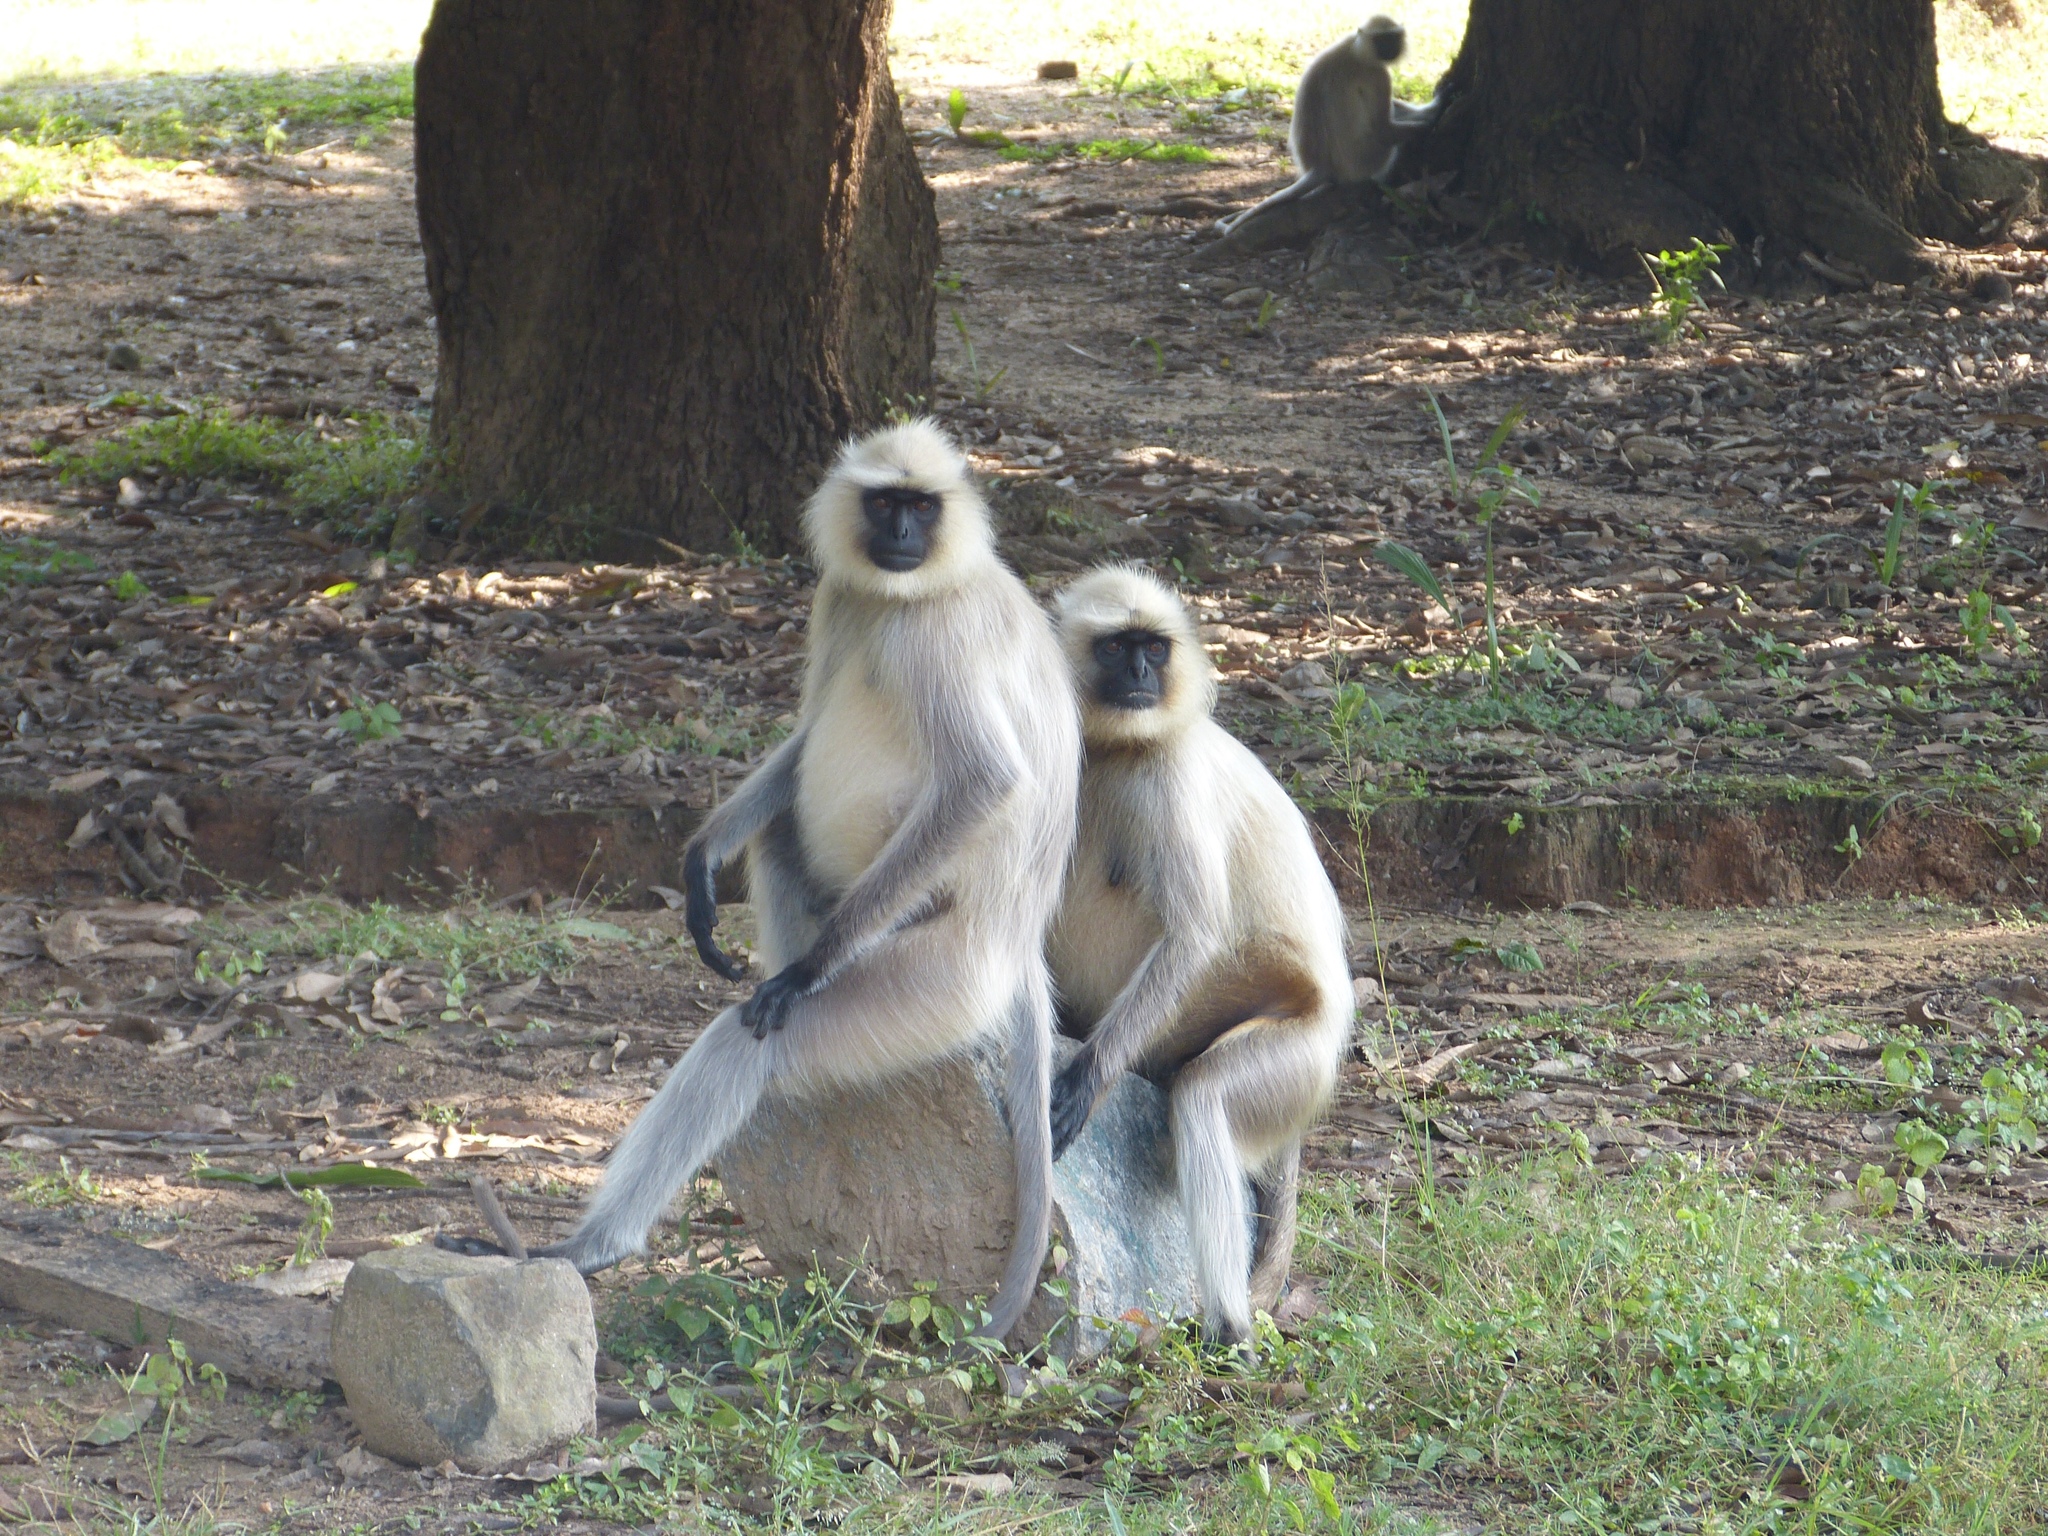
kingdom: Animalia
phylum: Chordata
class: Mammalia
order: Primates
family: Cercopithecidae
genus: Semnopithecus
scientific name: Semnopithecus entellus
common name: Northern plains gray langur
